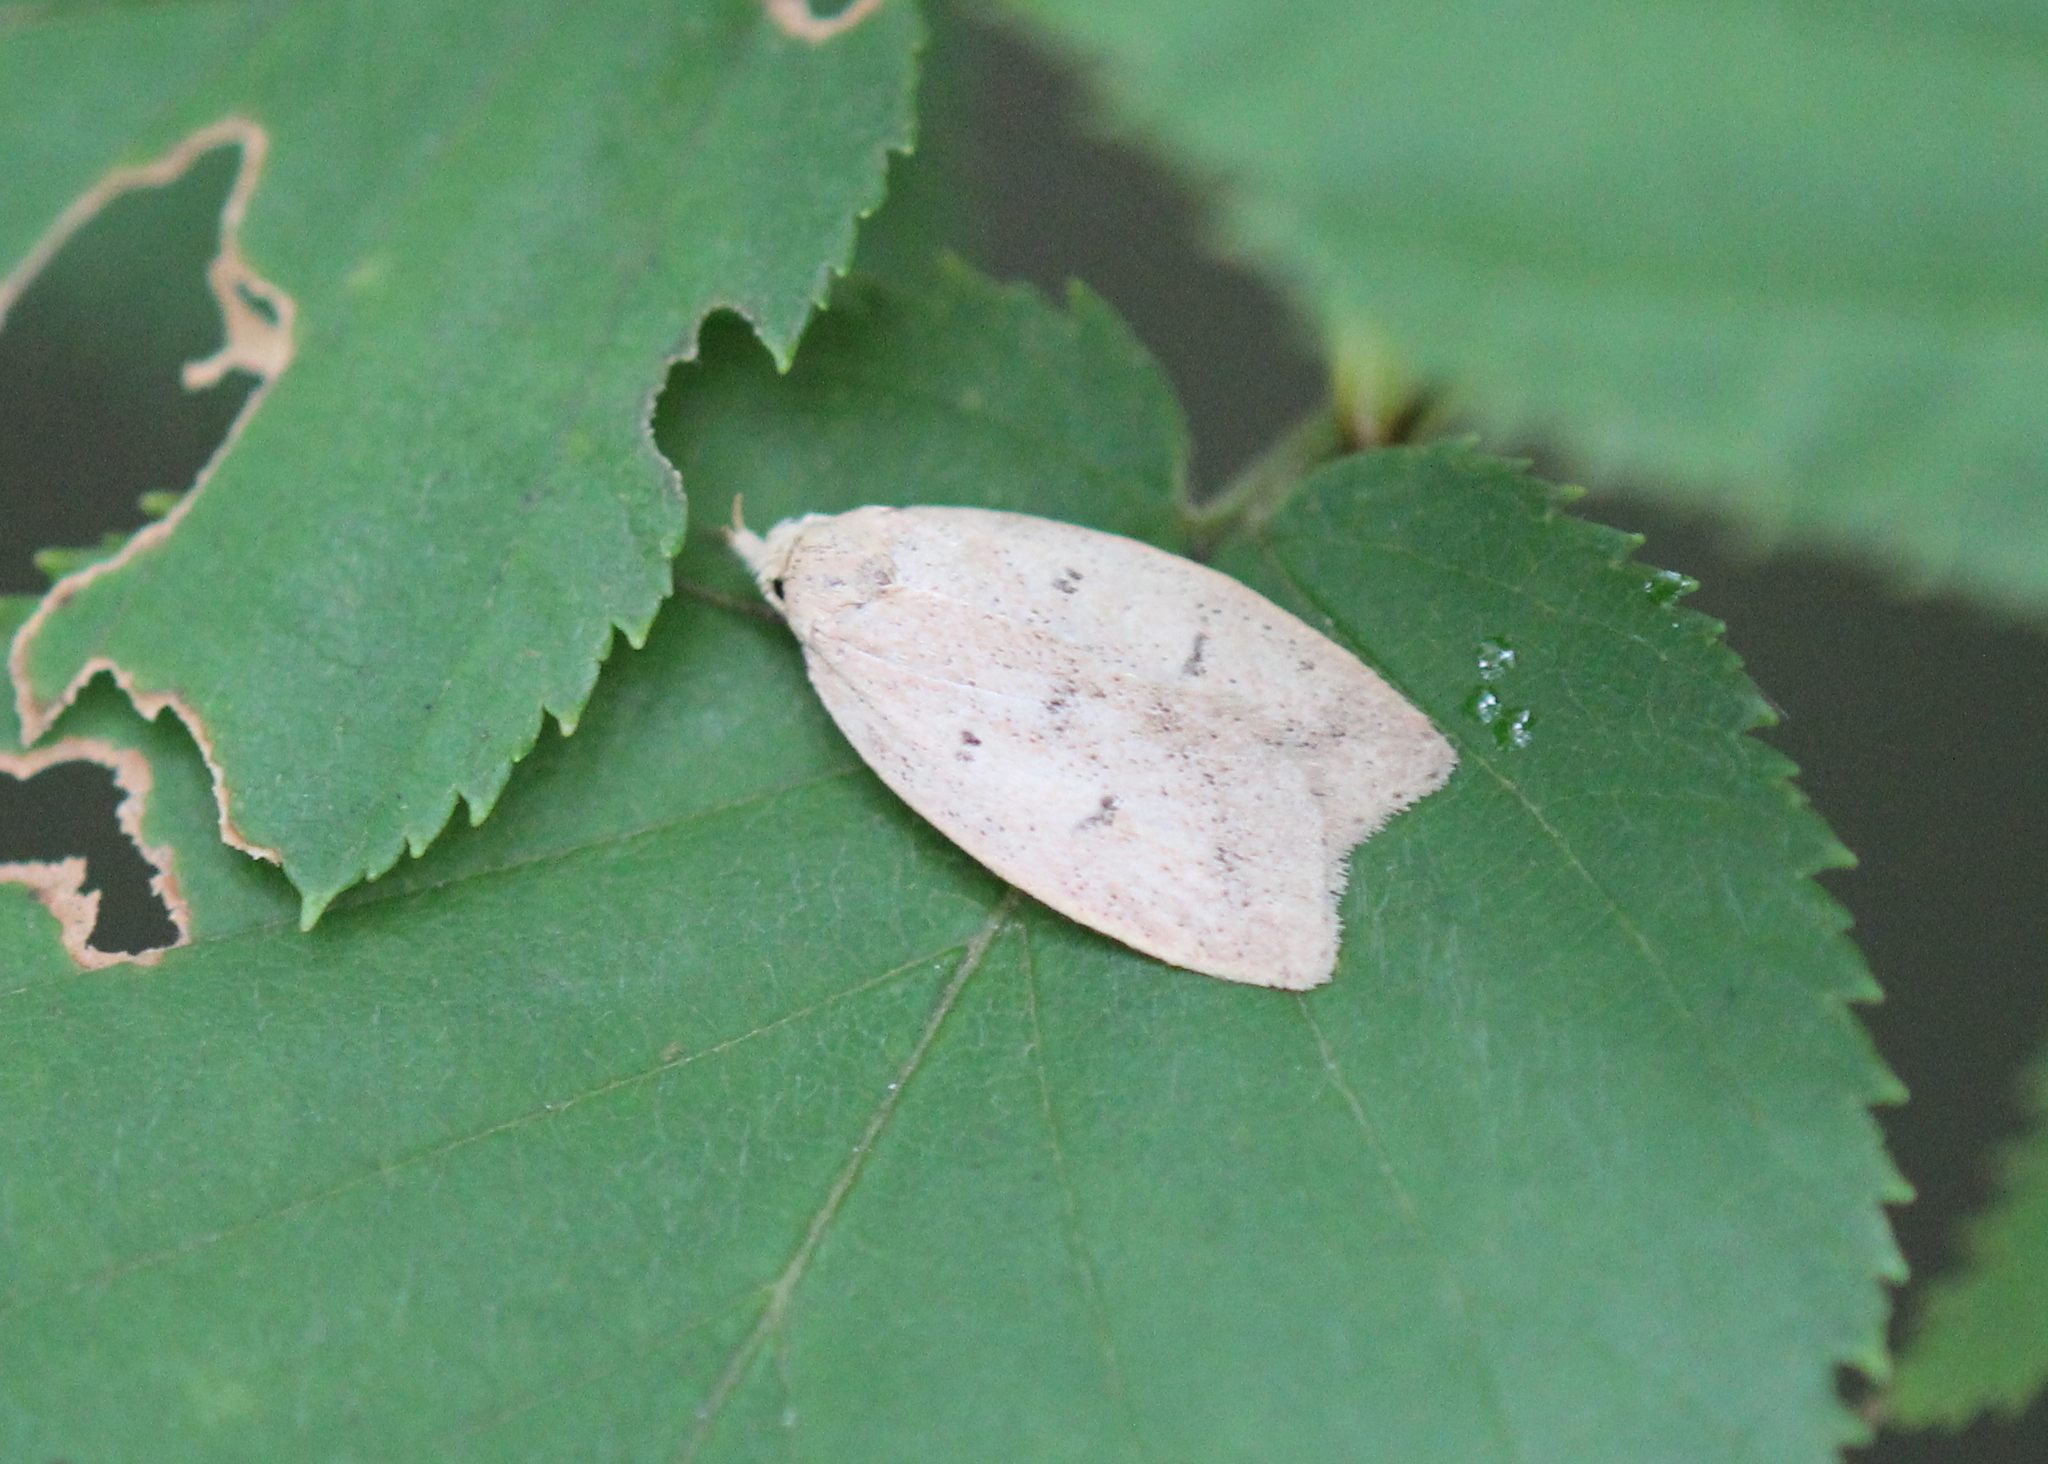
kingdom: Animalia
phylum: Arthropoda
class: Insecta
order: Lepidoptera
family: Peleopodidae
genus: Machimia
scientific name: Machimia tentoriferella
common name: Gold-striped leaftier moth
